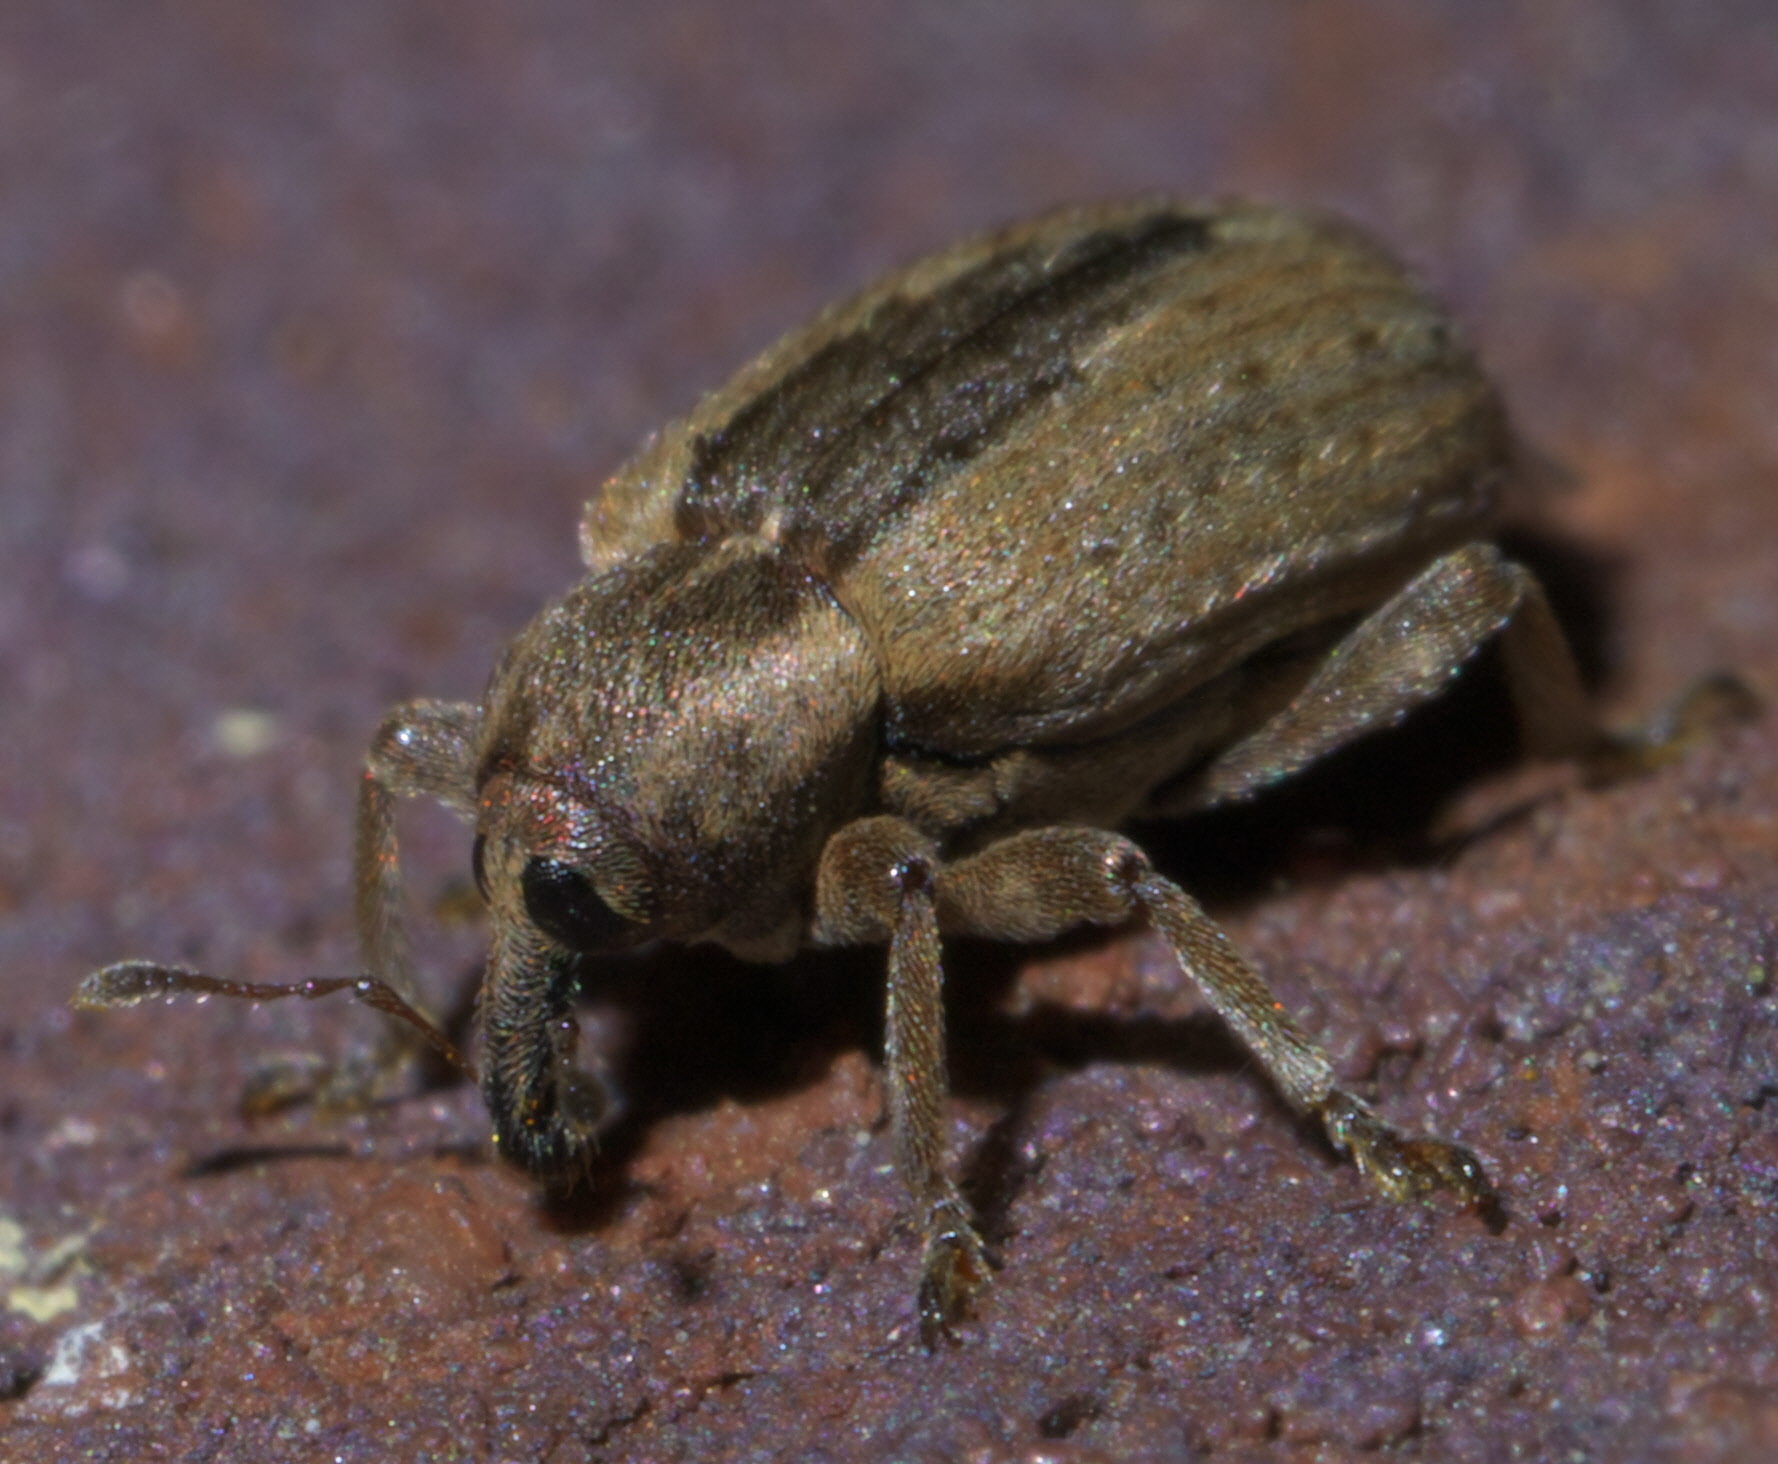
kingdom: Animalia
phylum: Arthropoda
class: Insecta
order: Coleoptera
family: Curculionidae
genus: Hypera
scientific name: Hypera postica
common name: Weevil
